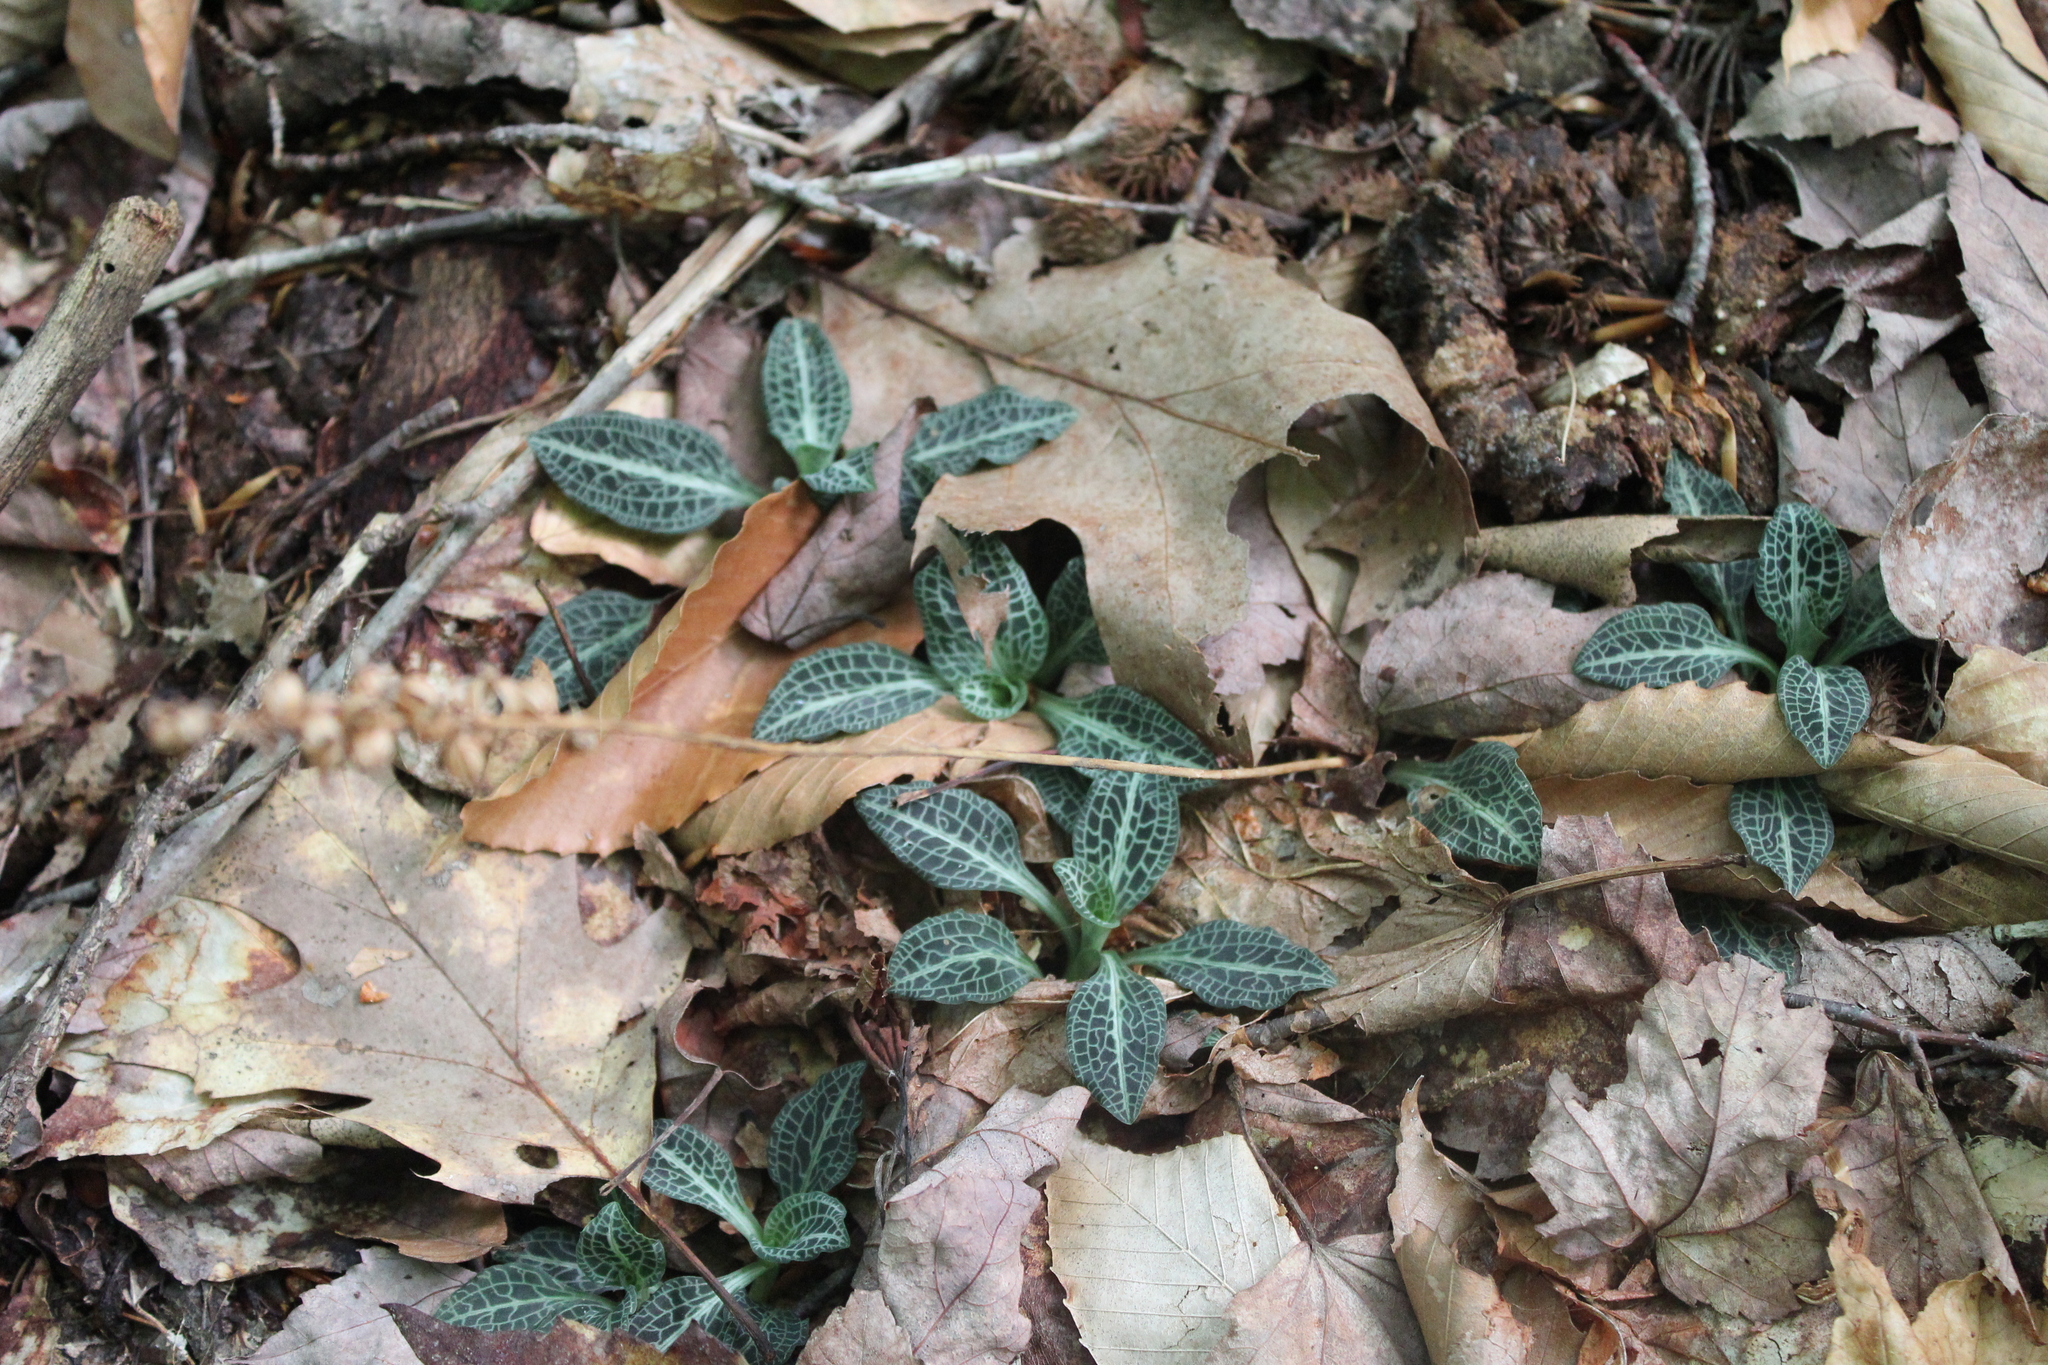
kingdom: Plantae
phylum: Tracheophyta
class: Liliopsida
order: Asparagales
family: Orchidaceae
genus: Goodyera
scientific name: Goodyera pubescens
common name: Downy rattlesnake-plantain
